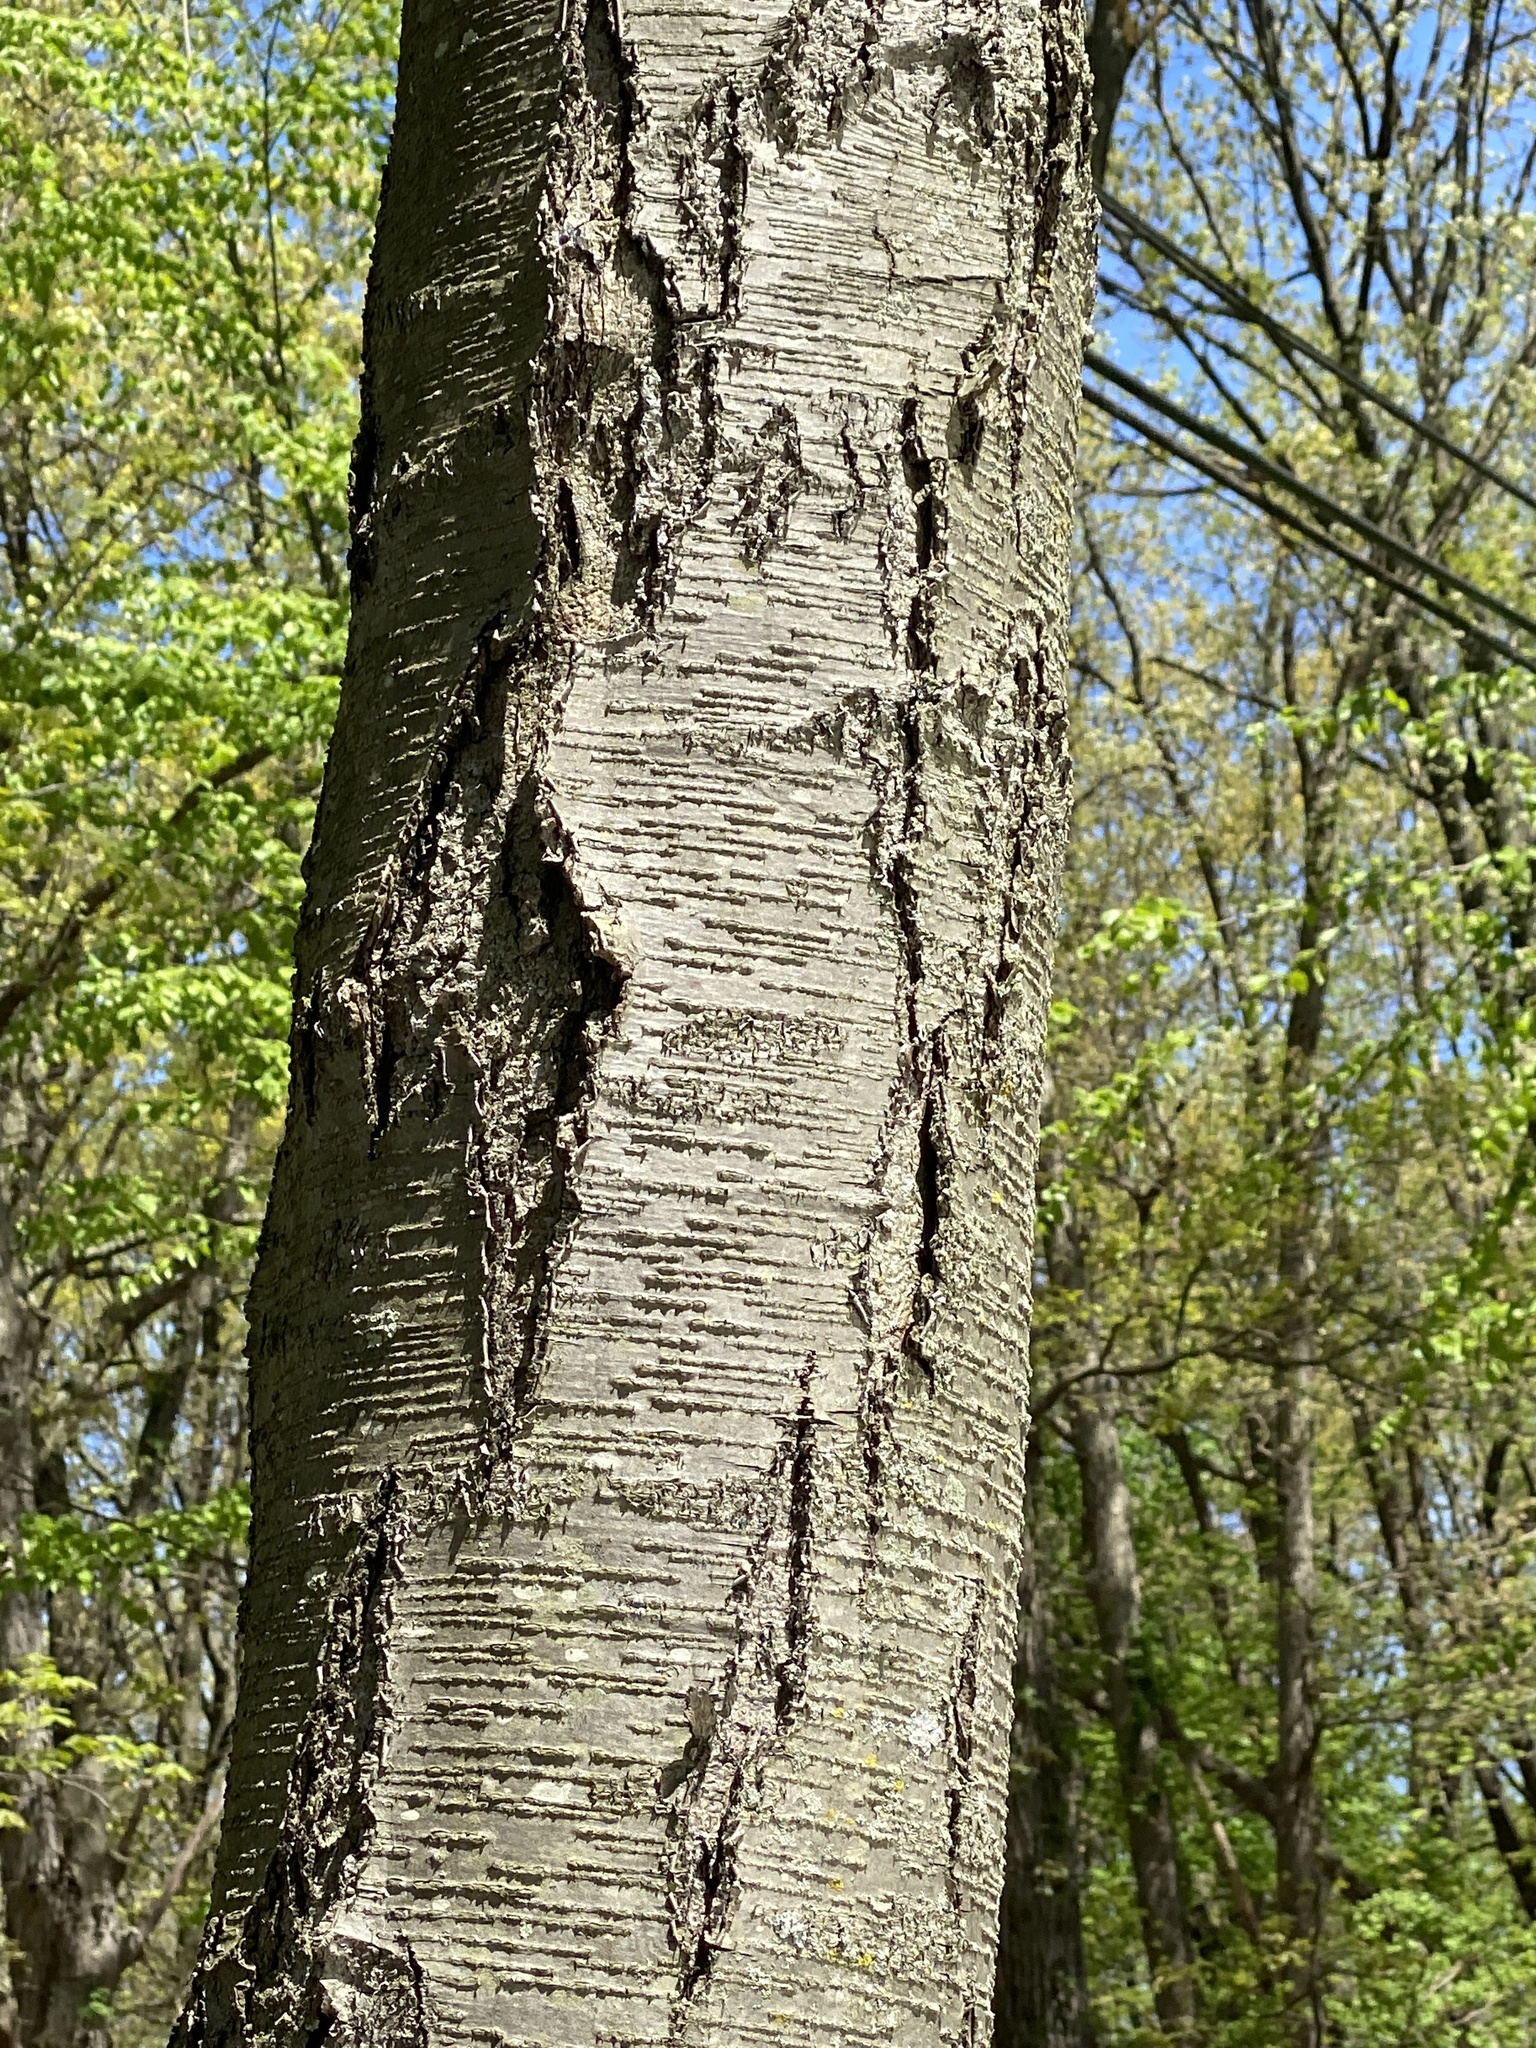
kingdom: Plantae
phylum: Tracheophyta
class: Magnoliopsida
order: Fagales
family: Betulaceae
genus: Betula
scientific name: Betula lenta
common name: Black birch
